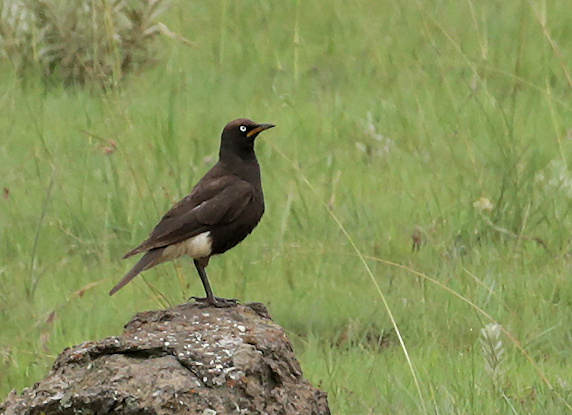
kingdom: Animalia
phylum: Chordata
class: Aves
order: Passeriformes
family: Sturnidae
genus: Lamprotornis
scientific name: Lamprotornis bicolor
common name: Pied starling
